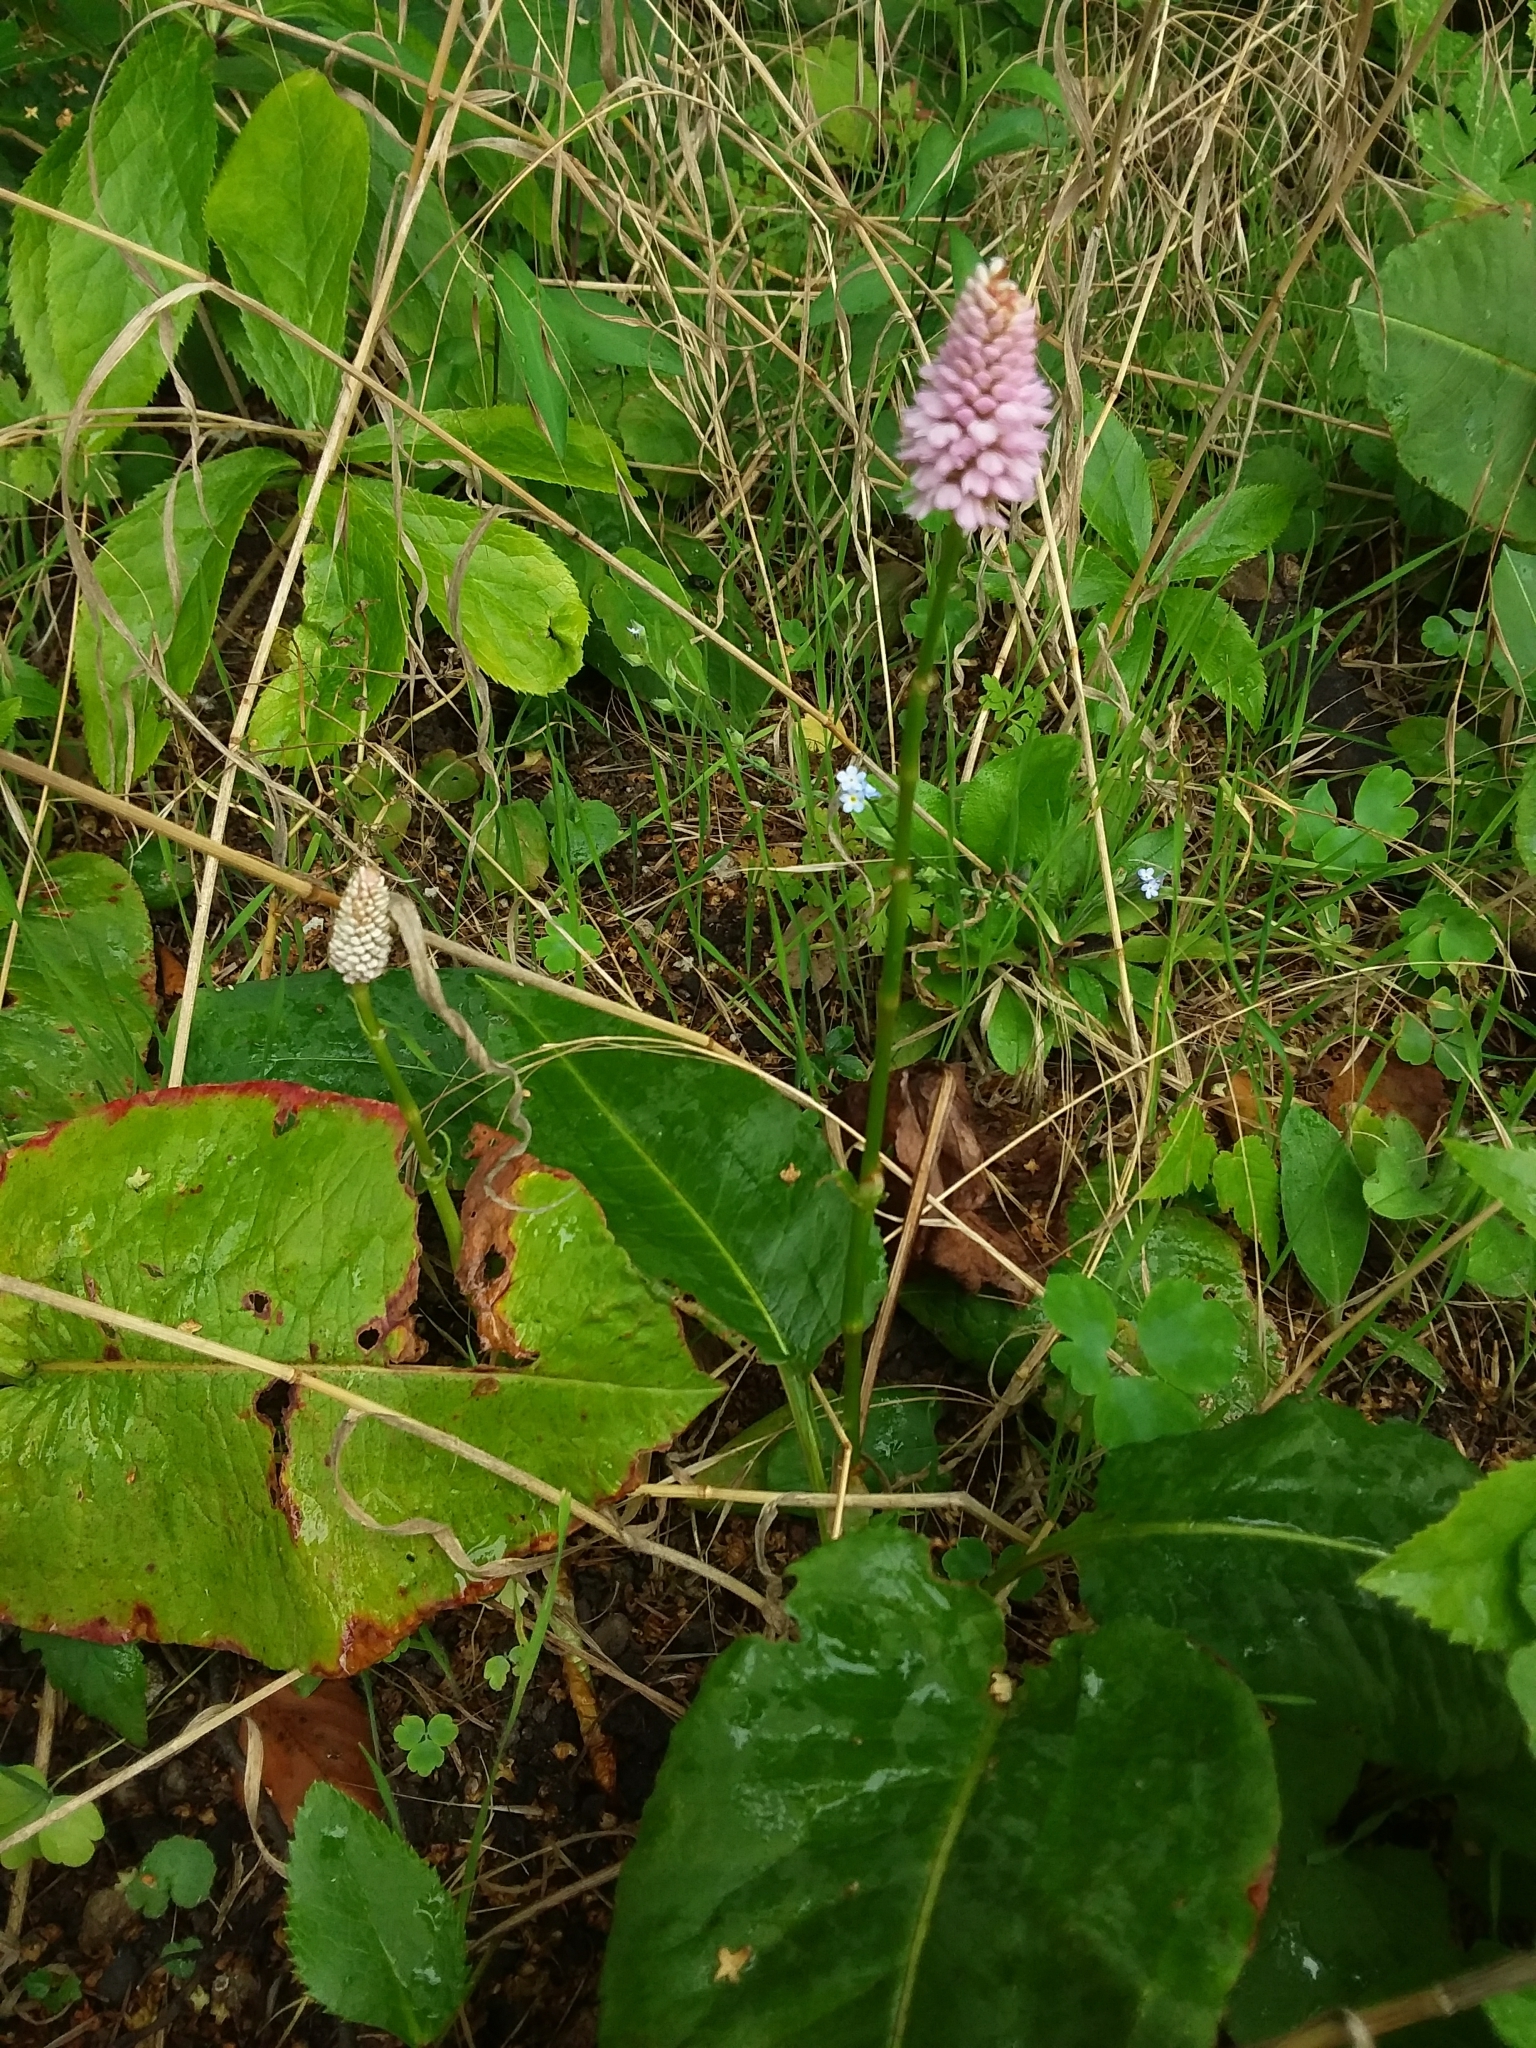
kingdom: Plantae
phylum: Tracheophyta
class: Magnoliopsida
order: Caryophyllales
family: Polygonaceae
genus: Bistorta
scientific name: Bistorta officinalis
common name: Common bistort
